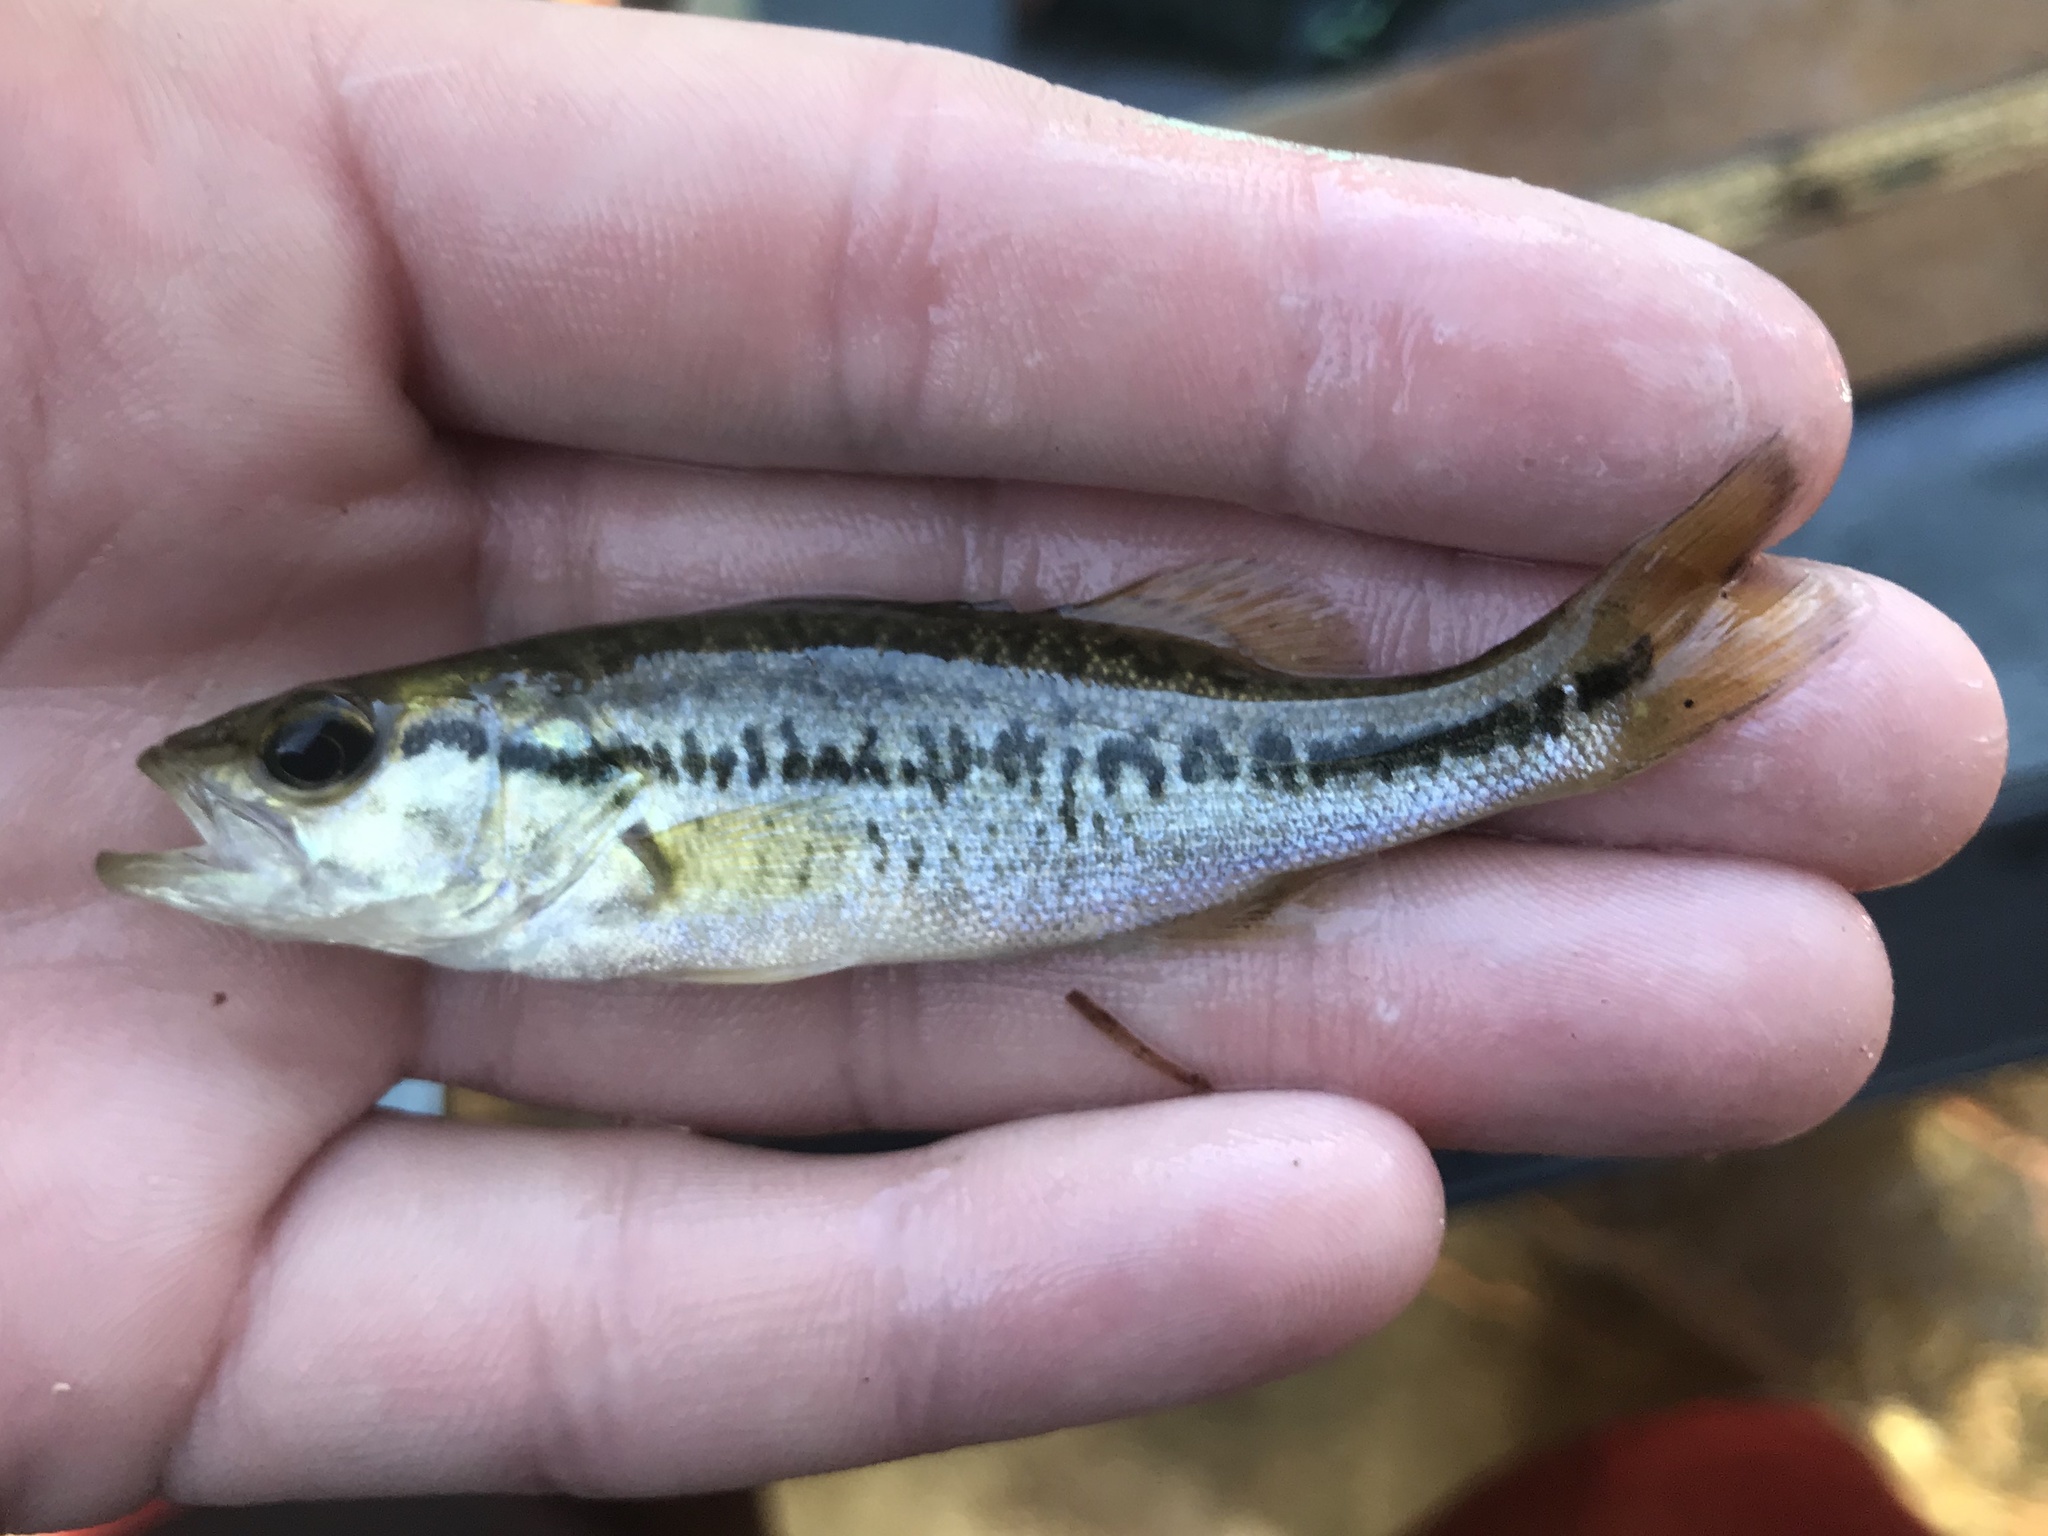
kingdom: Animalia
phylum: Chordata
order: Perciformes
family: Centrarchidae
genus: Micropterus
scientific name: Micropterus
